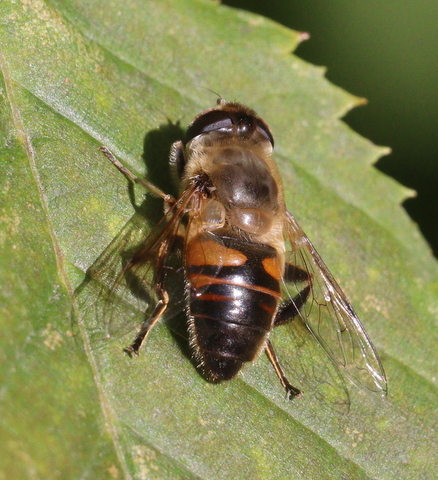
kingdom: Animalia
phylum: Arthropoda
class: Insecta
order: Diptera
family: Syrphidae
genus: Eristalis
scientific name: Eristalis tenax
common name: Drone fly
